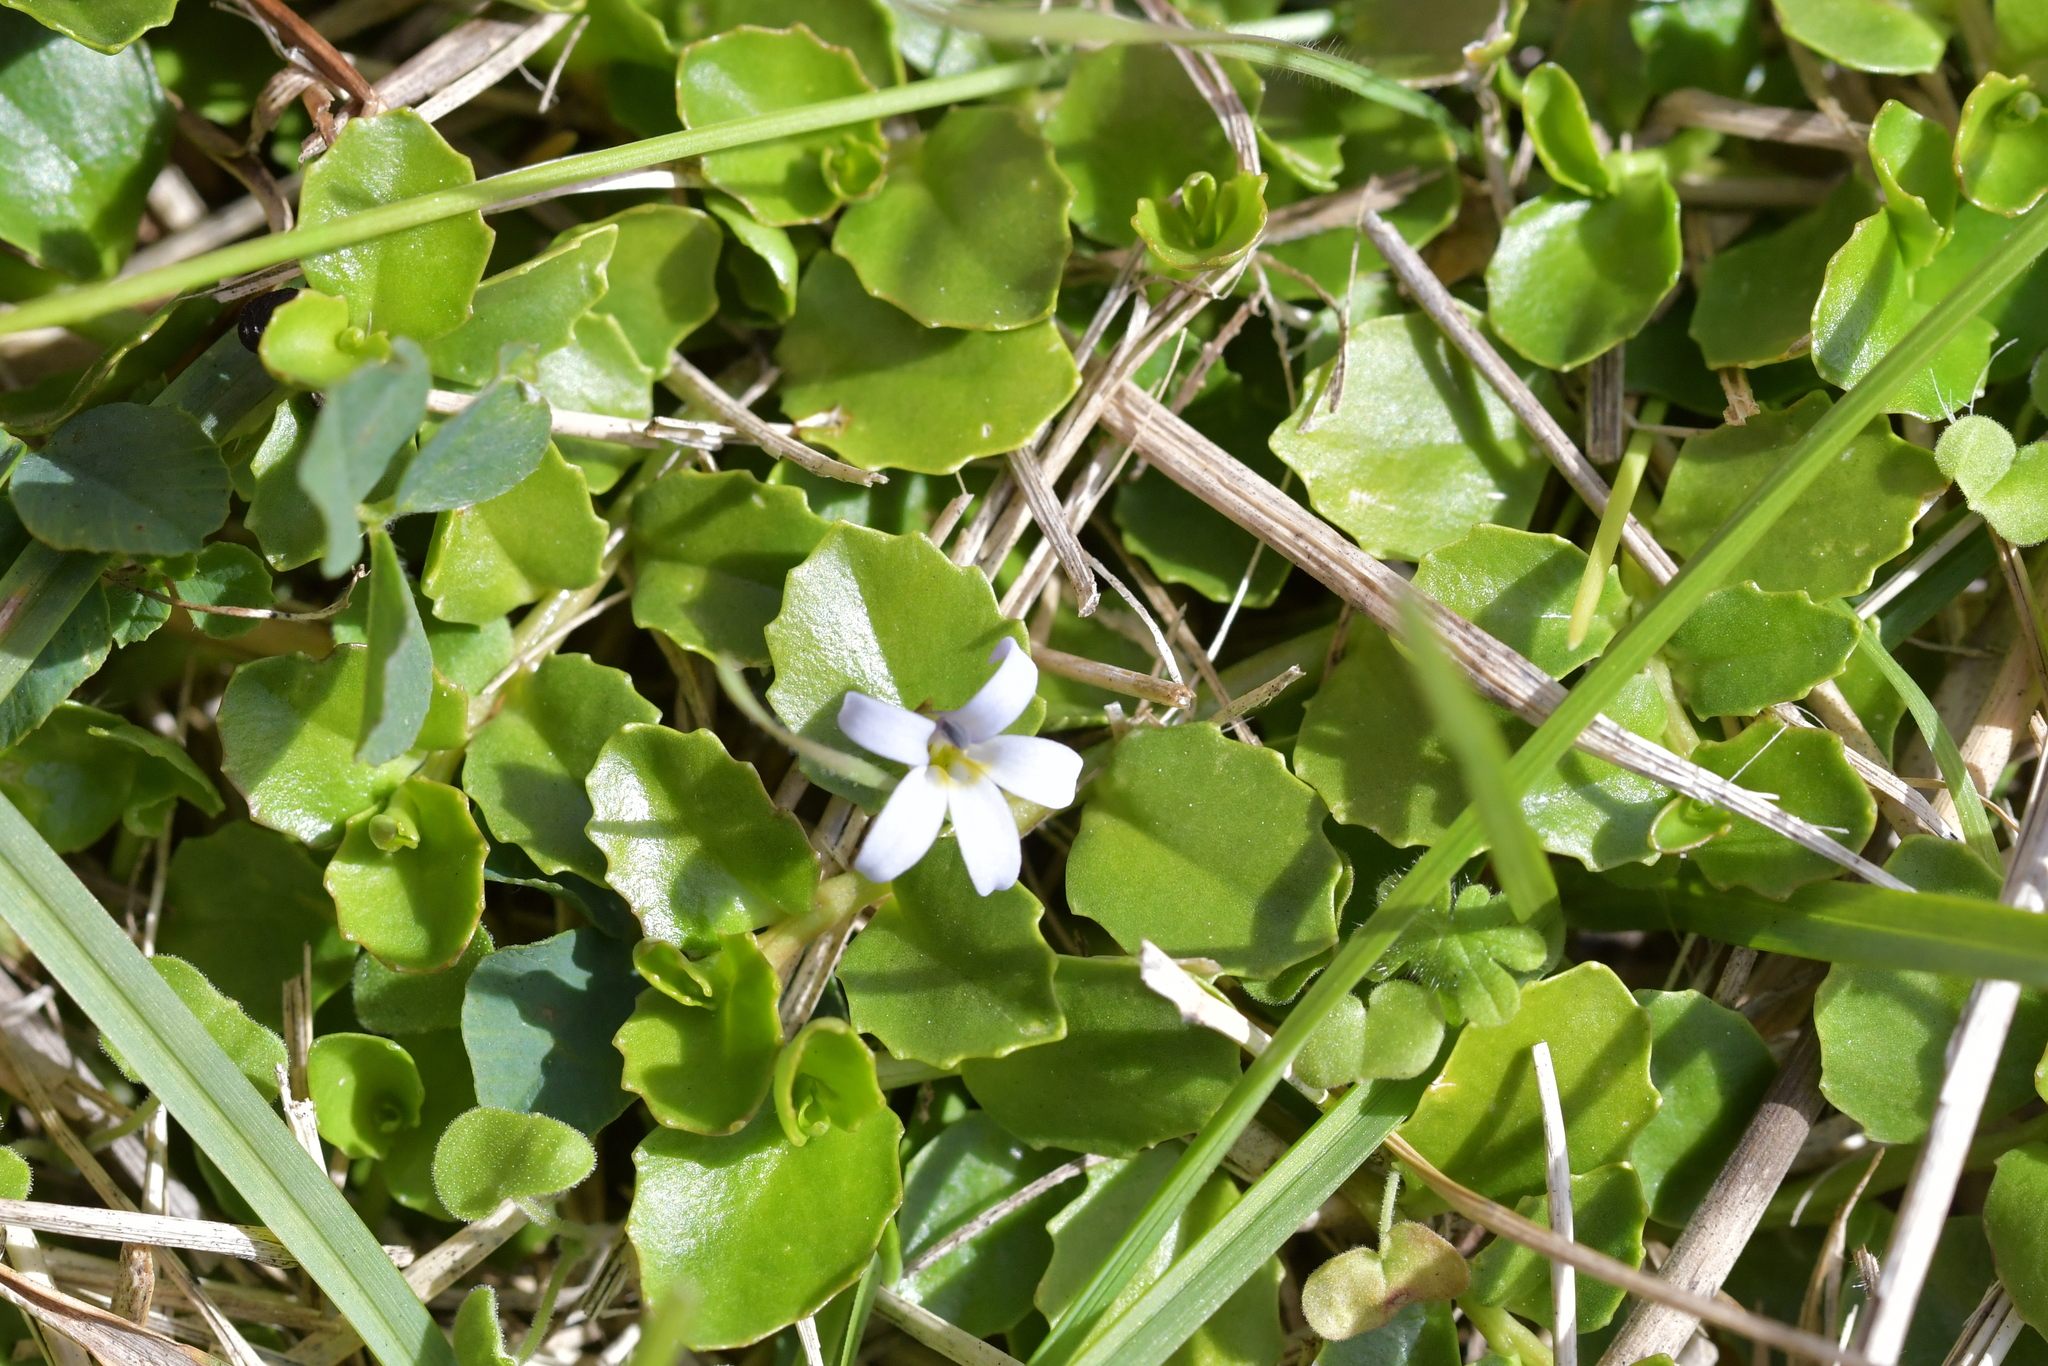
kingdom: Plantae
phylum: Tracheophyta
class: Magnoliopsida
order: Asterales
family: Campanulaceae
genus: Lobelia
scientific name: Lobelia arenaria
